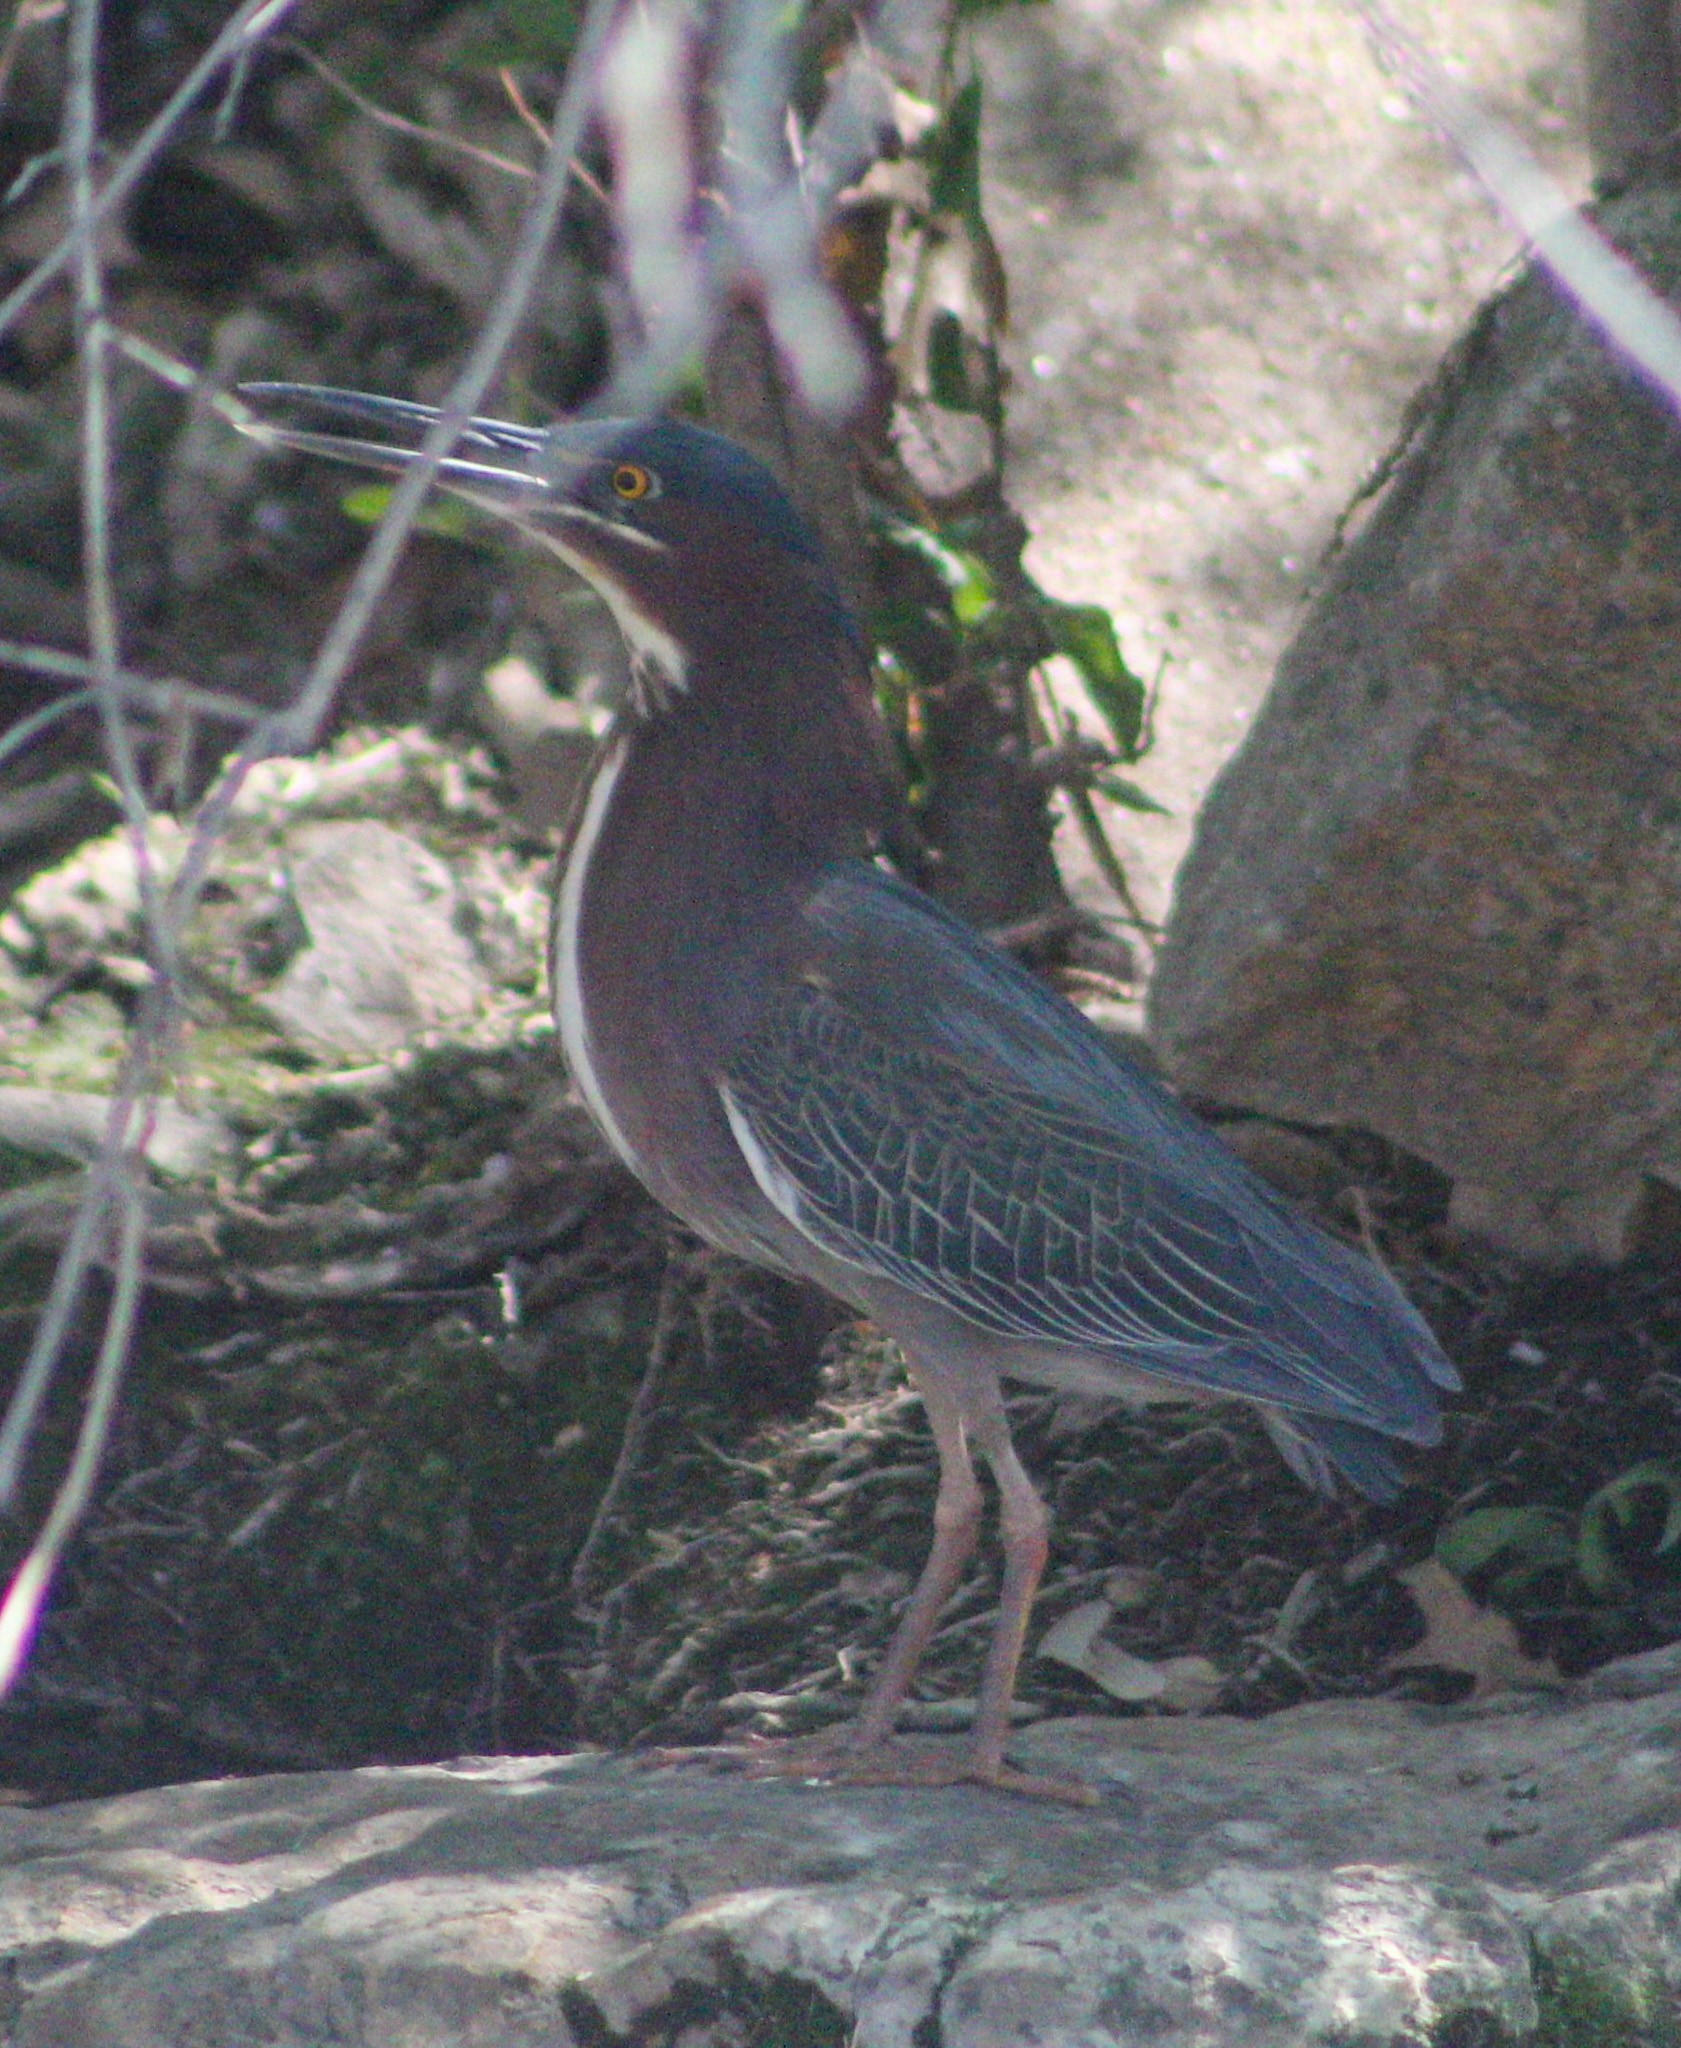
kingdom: Animalia
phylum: Chordata
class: Aves
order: Pelecaniformes
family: Ardeidae
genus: Butorides
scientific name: Butorides virescens
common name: Green heron
